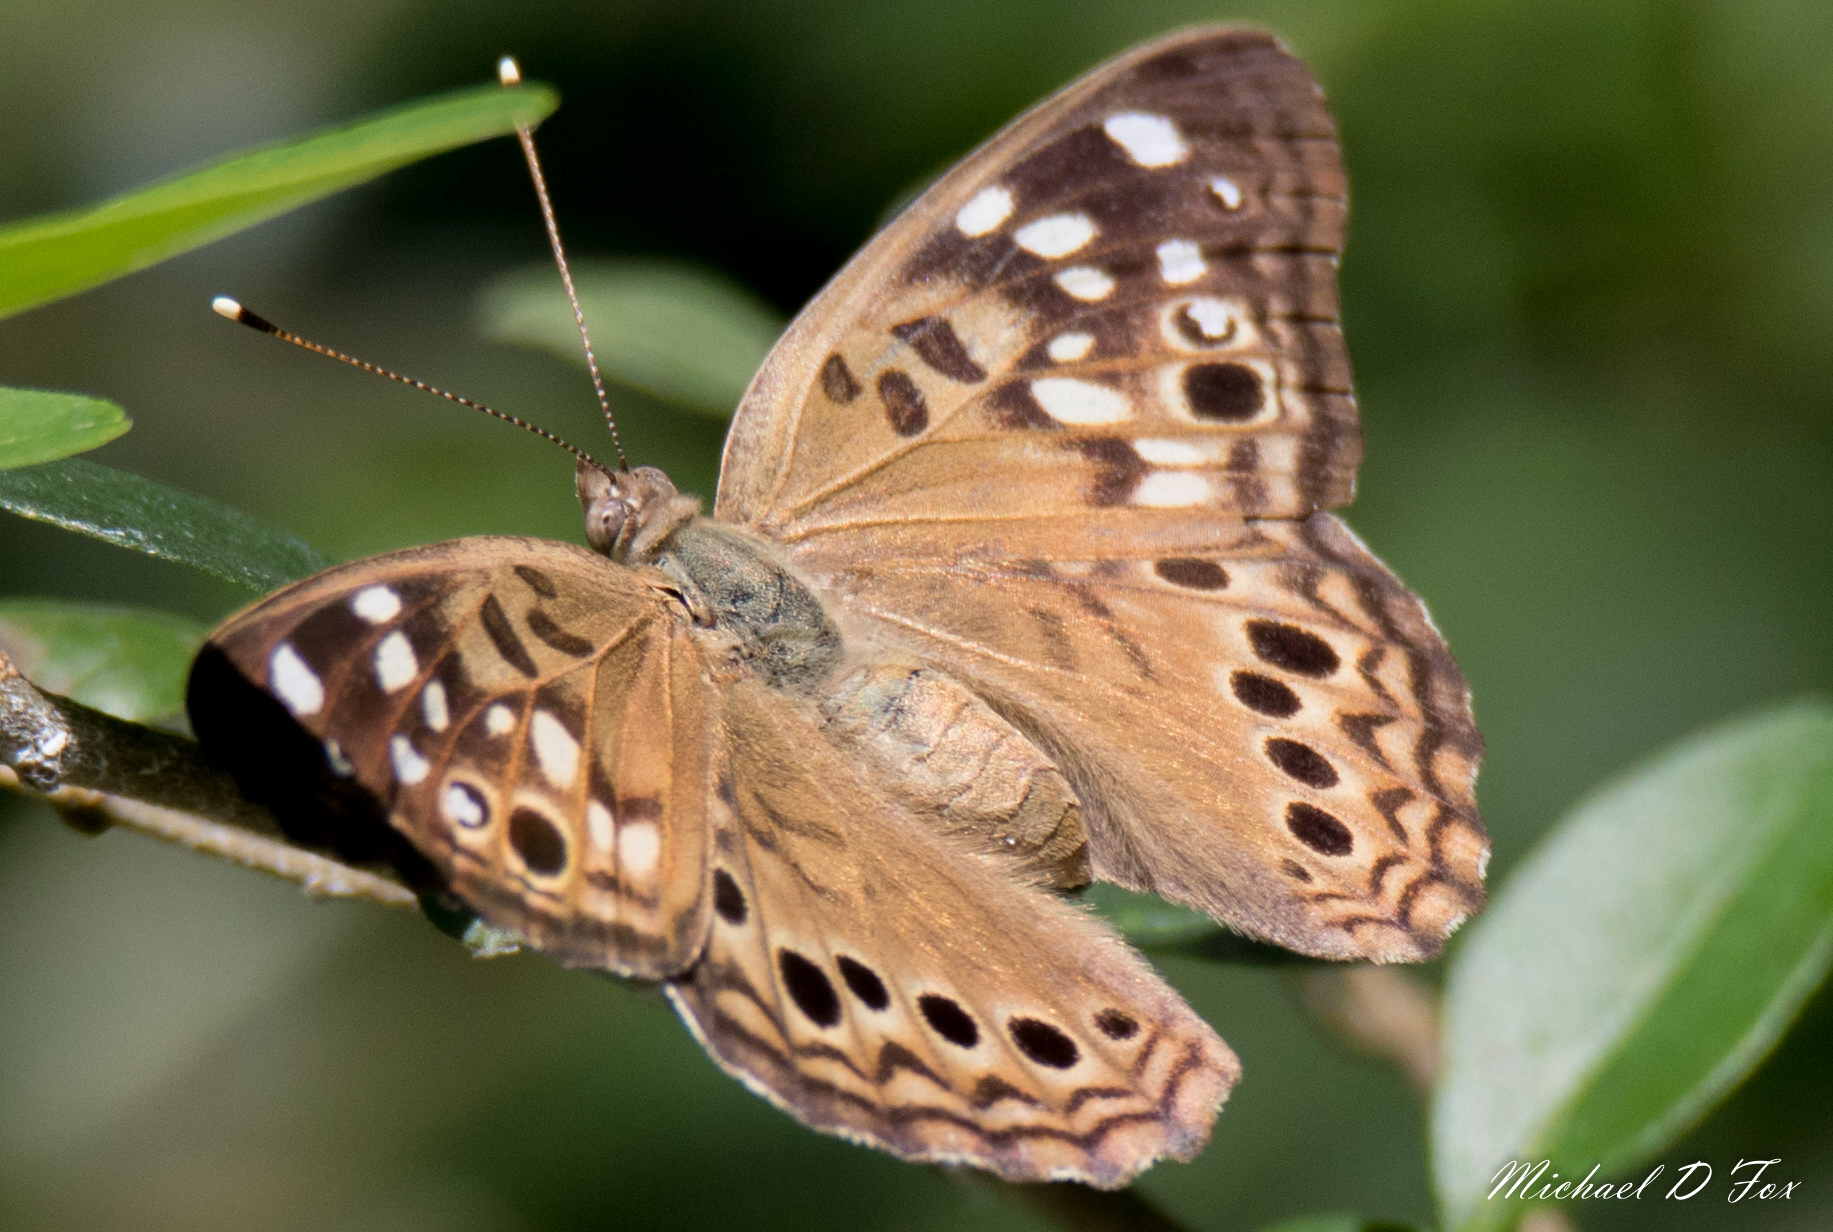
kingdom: Animalia
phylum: Arthropoda
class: Insecta
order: Lepidoptera
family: Nymphalidae
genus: Asterocampa
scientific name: Asterocampa celtis
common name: Hackberry emperor
